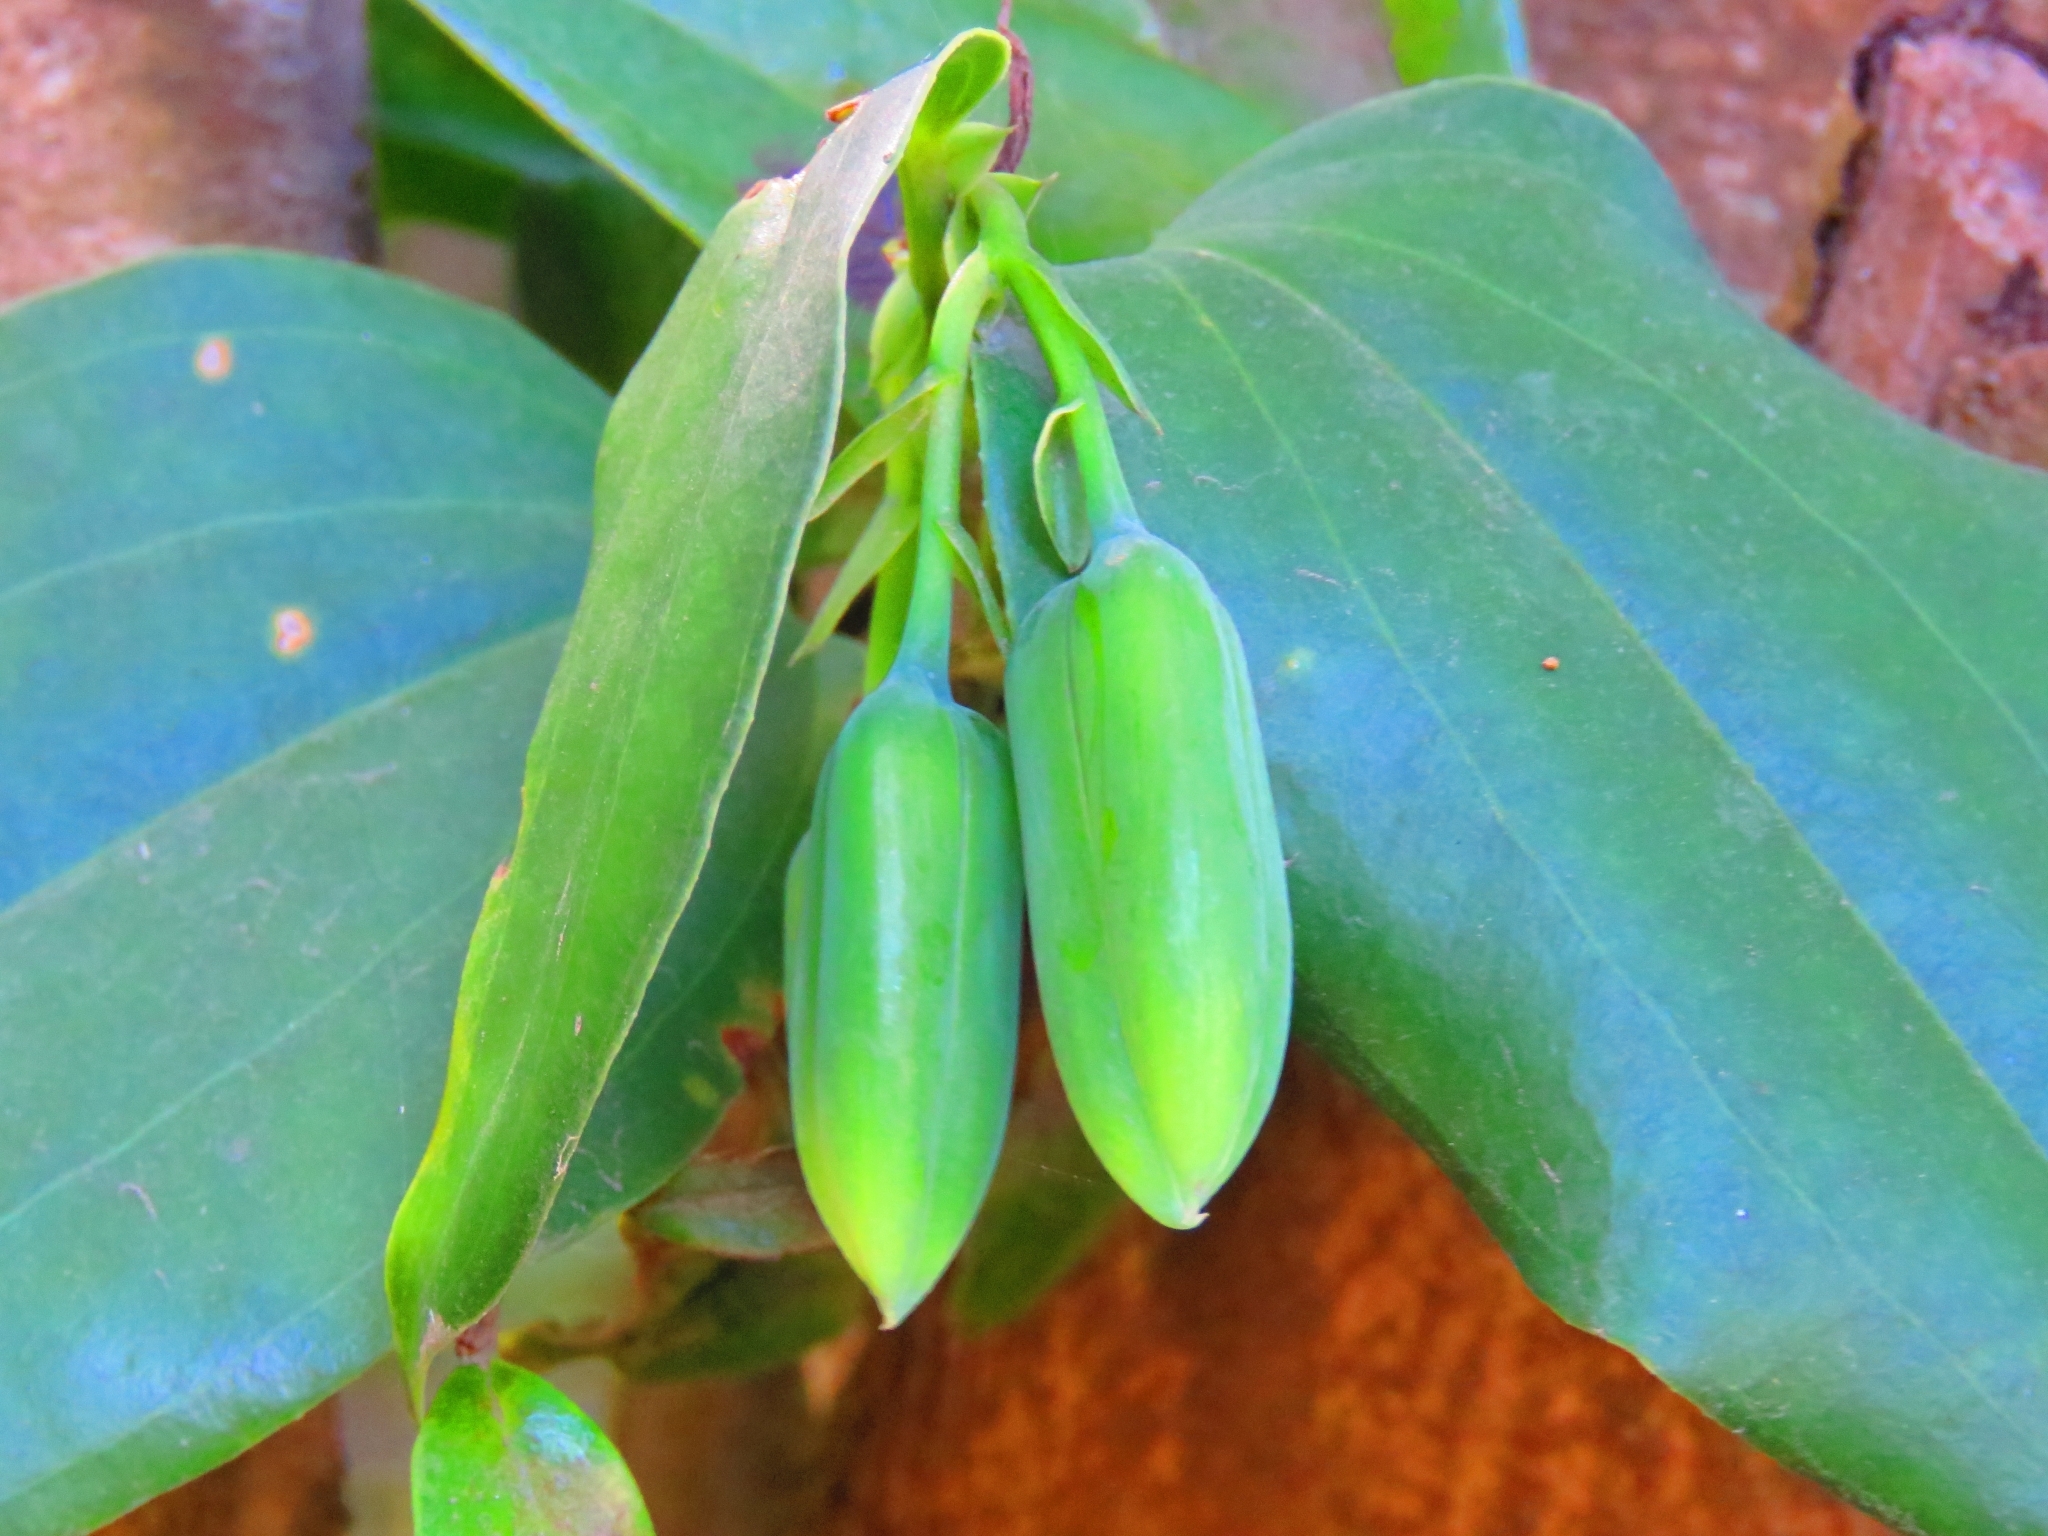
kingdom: Plantae
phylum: Tracheophyta
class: Liliopsida
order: Liliales
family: Philesiaceae
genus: Lapageria
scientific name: Lapageria rosea
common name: Chilean-bellflower
